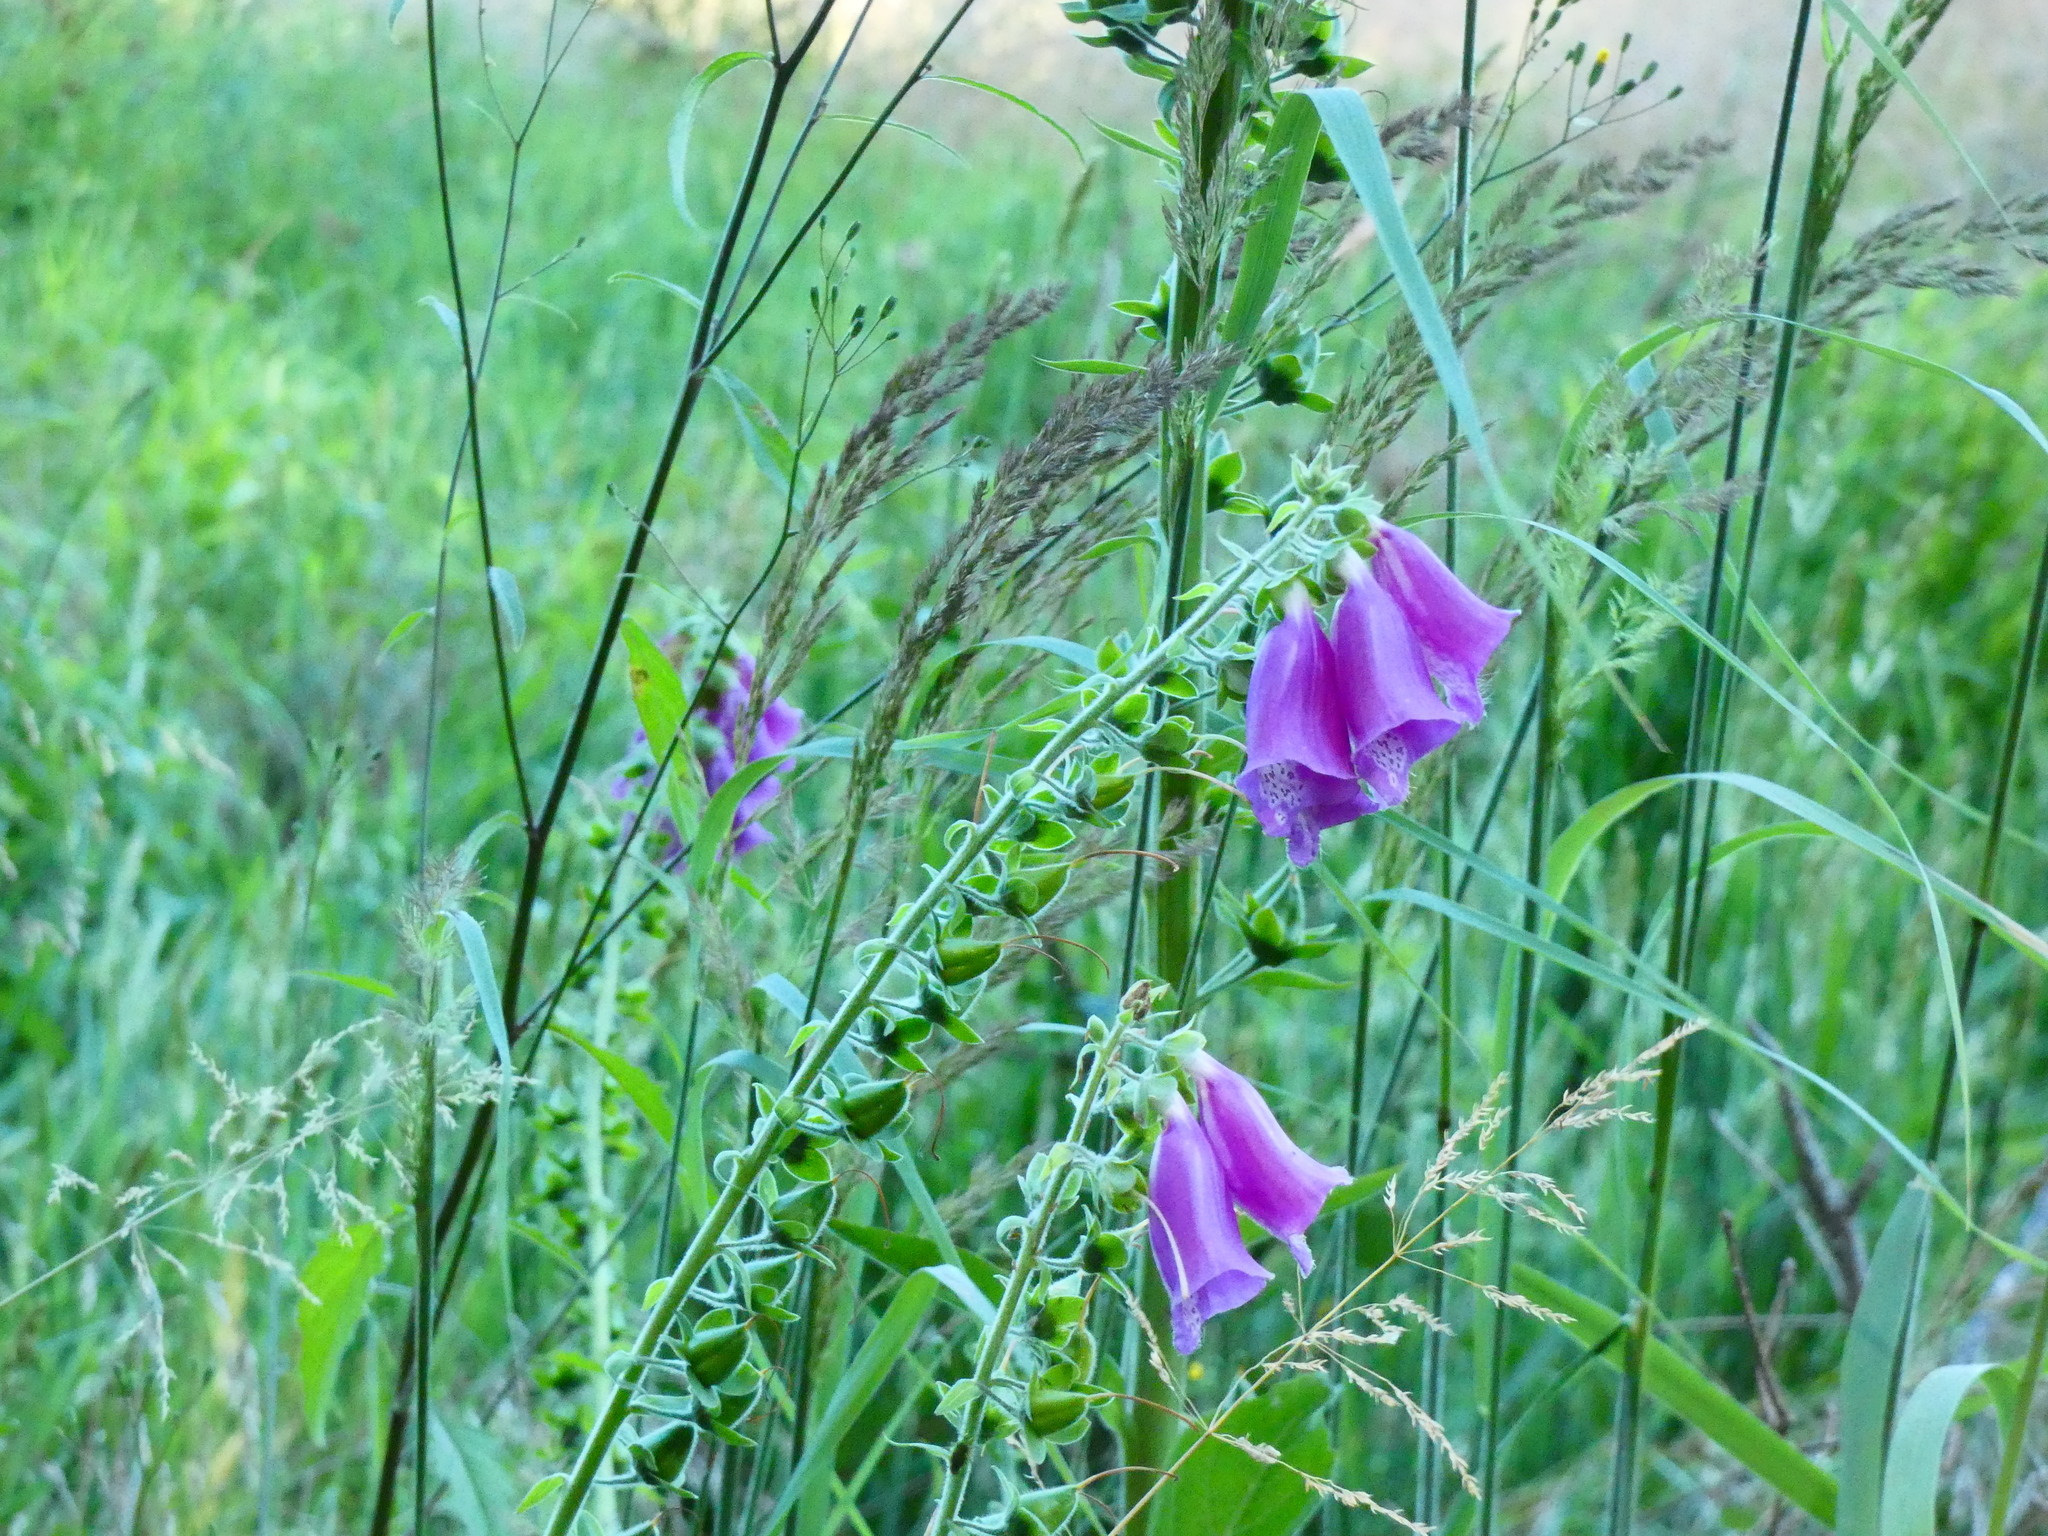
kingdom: Plantae
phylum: Tracheophyta
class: Magnoliopsida
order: Lamiales
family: Plantaginaceae
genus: Digitalis
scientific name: Digitalis purpurea
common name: Foxglove
